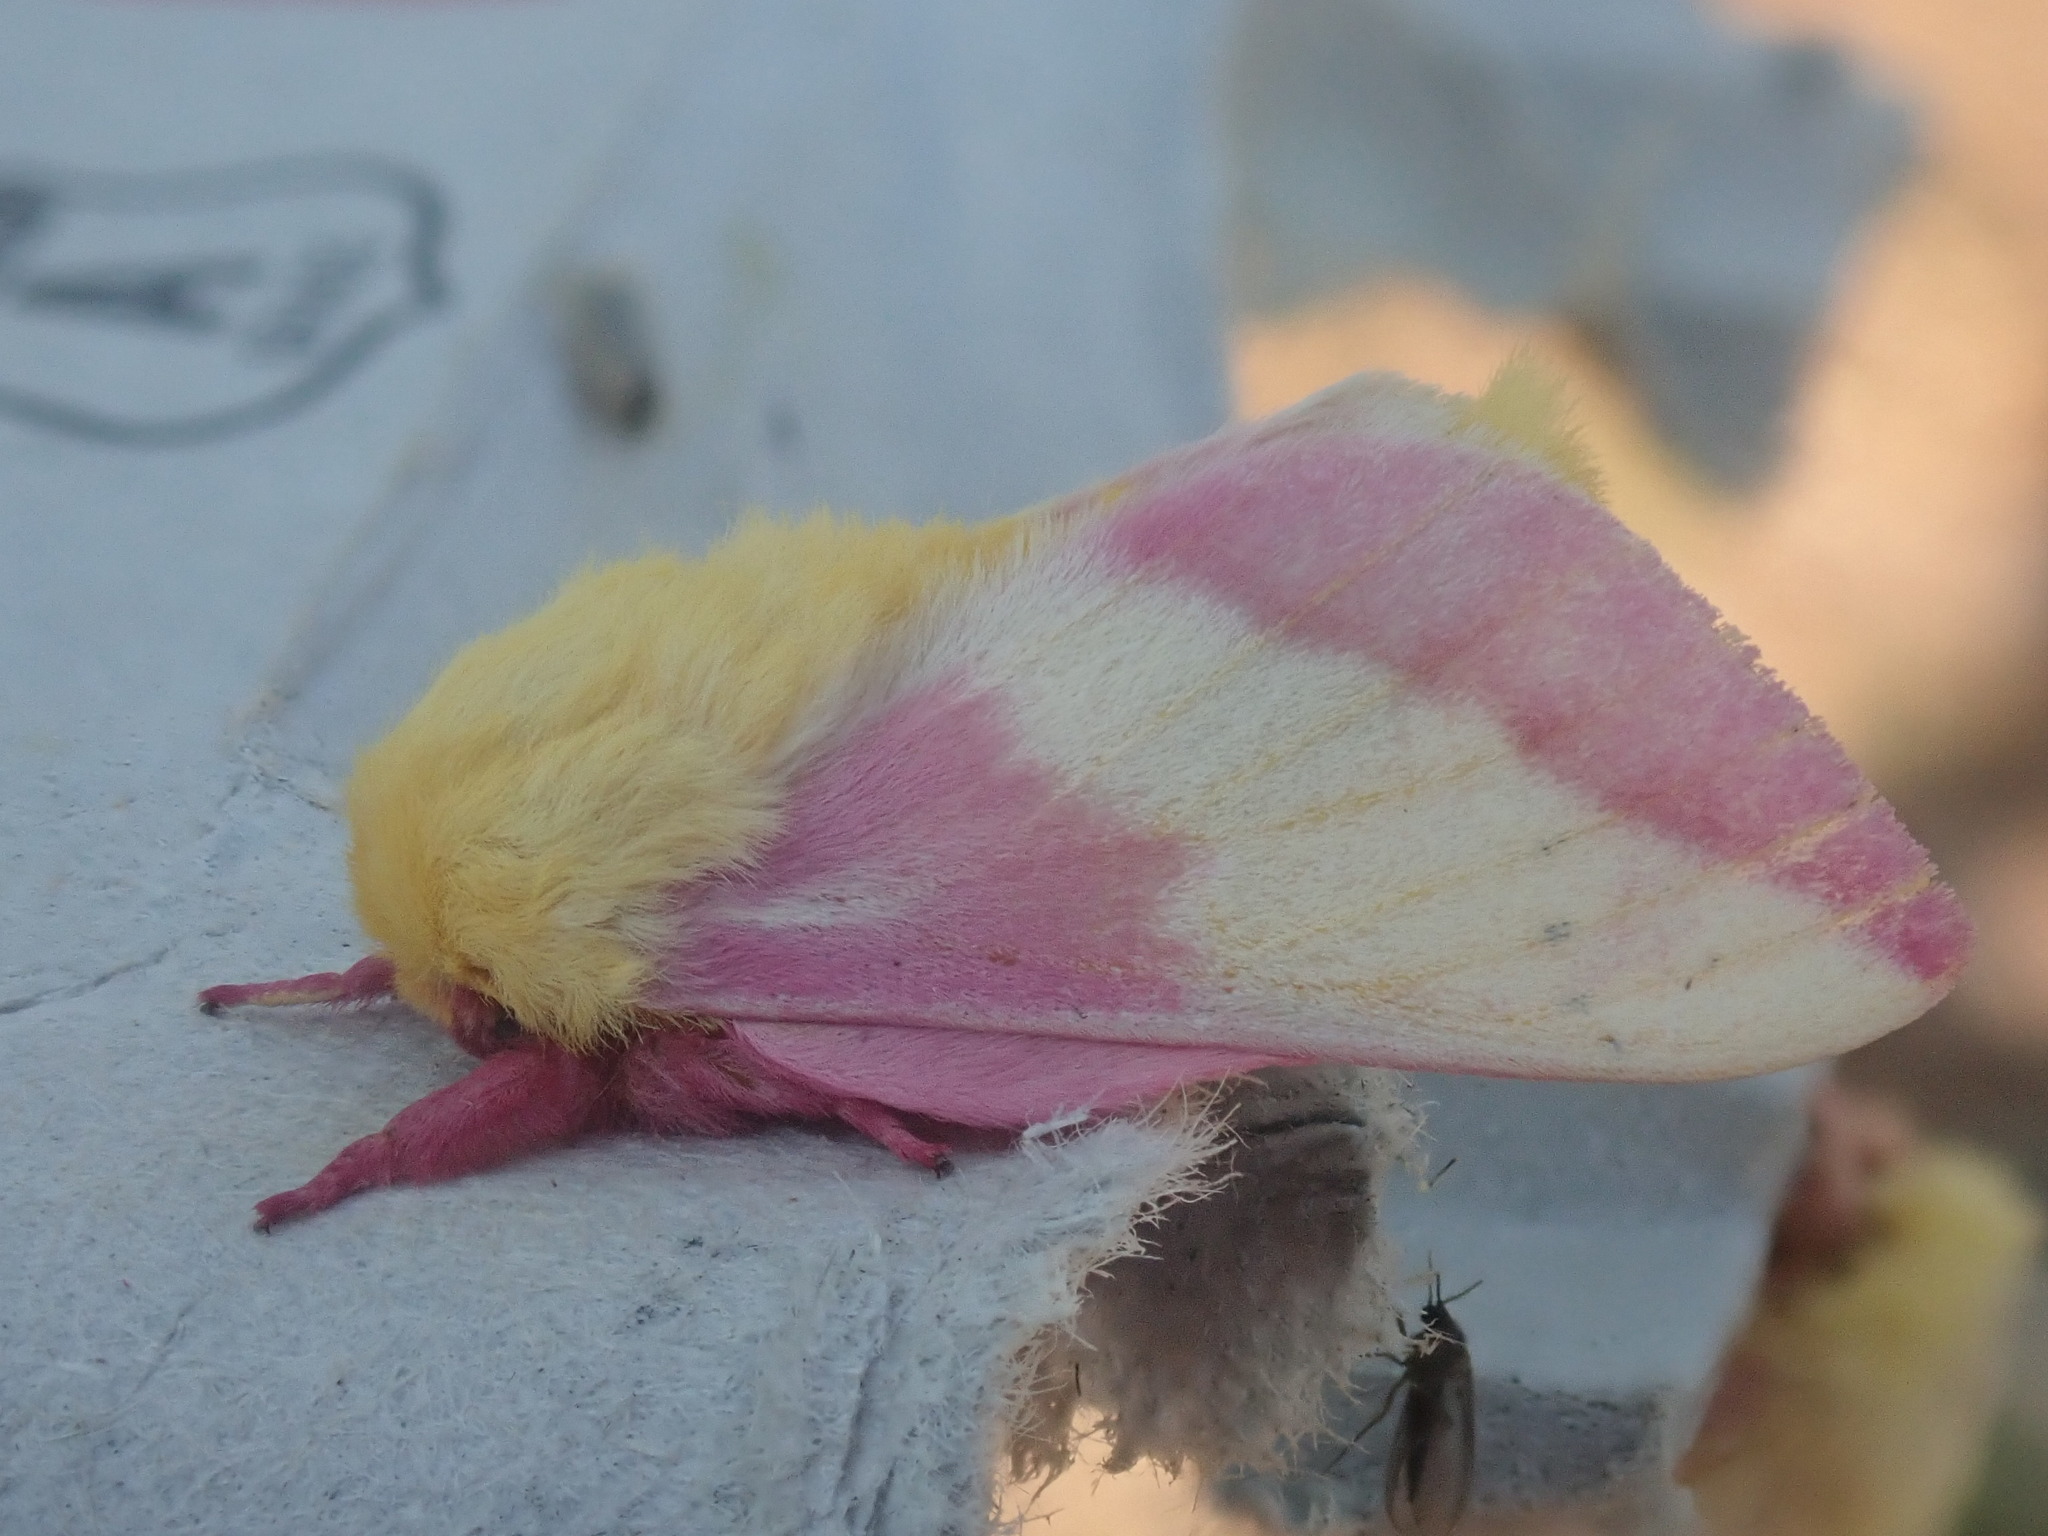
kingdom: Animalia
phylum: Arthropoda
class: Insecta
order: Lepidoptera
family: Saturniidae
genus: Dryocampa
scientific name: Dryocampa rubicunda
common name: Rosy maple moth
